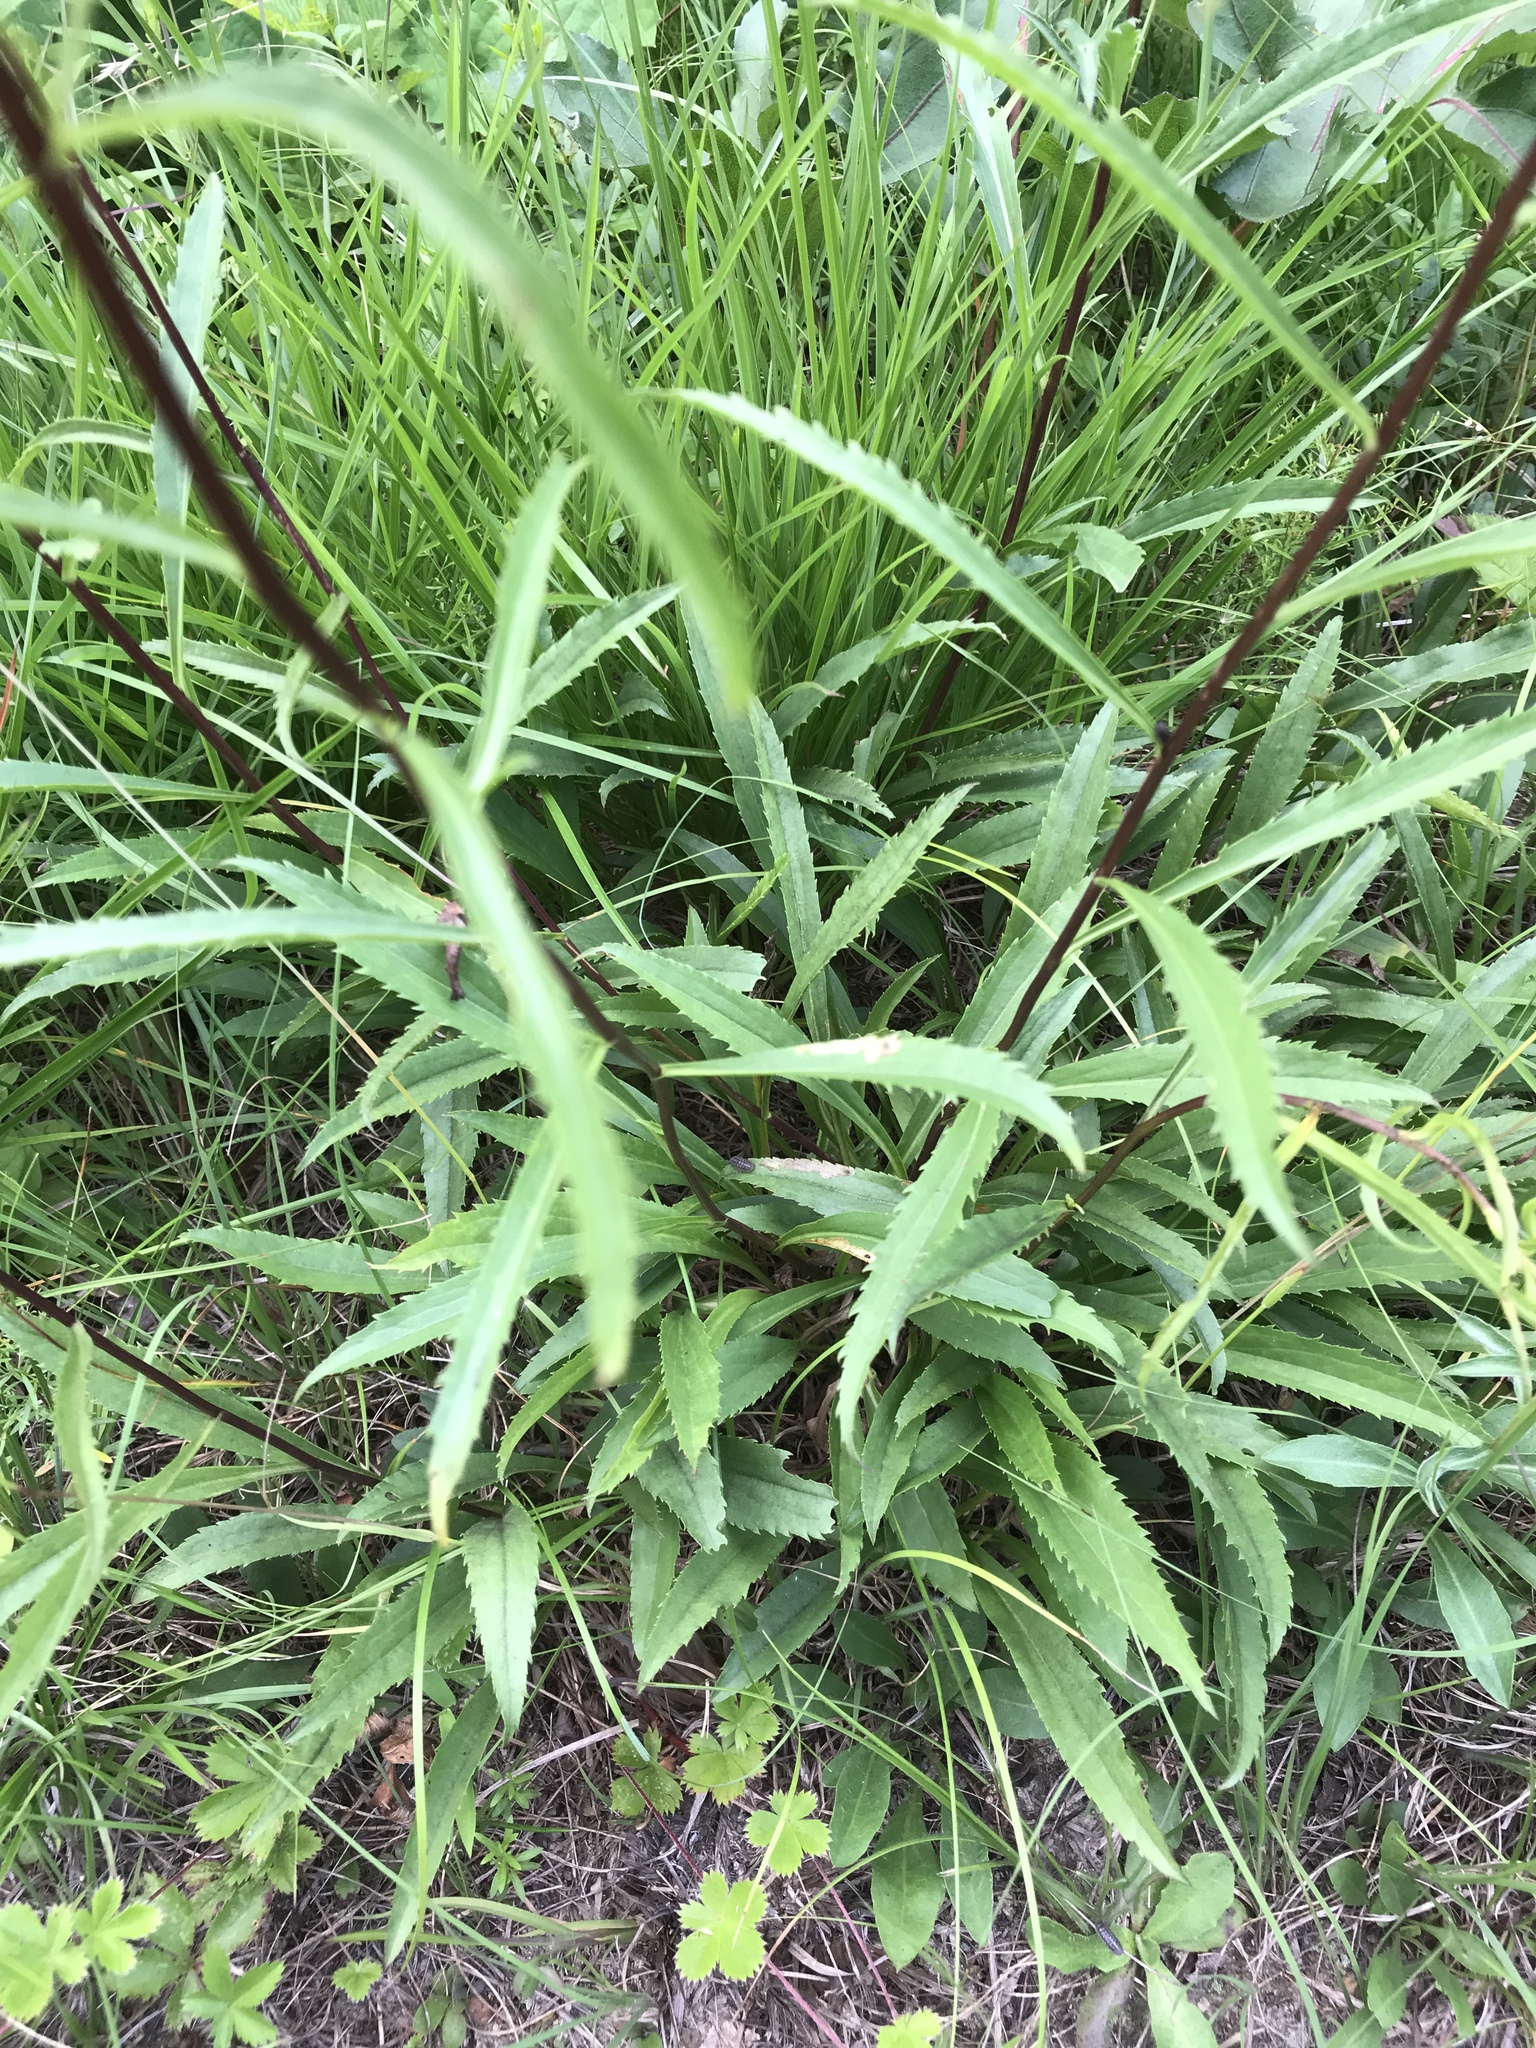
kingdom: Plantae
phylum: Tracheophyta
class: Magnoliopsida
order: Asterales
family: Asteraceae
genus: Solidago
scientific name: Solidago pinetorum
